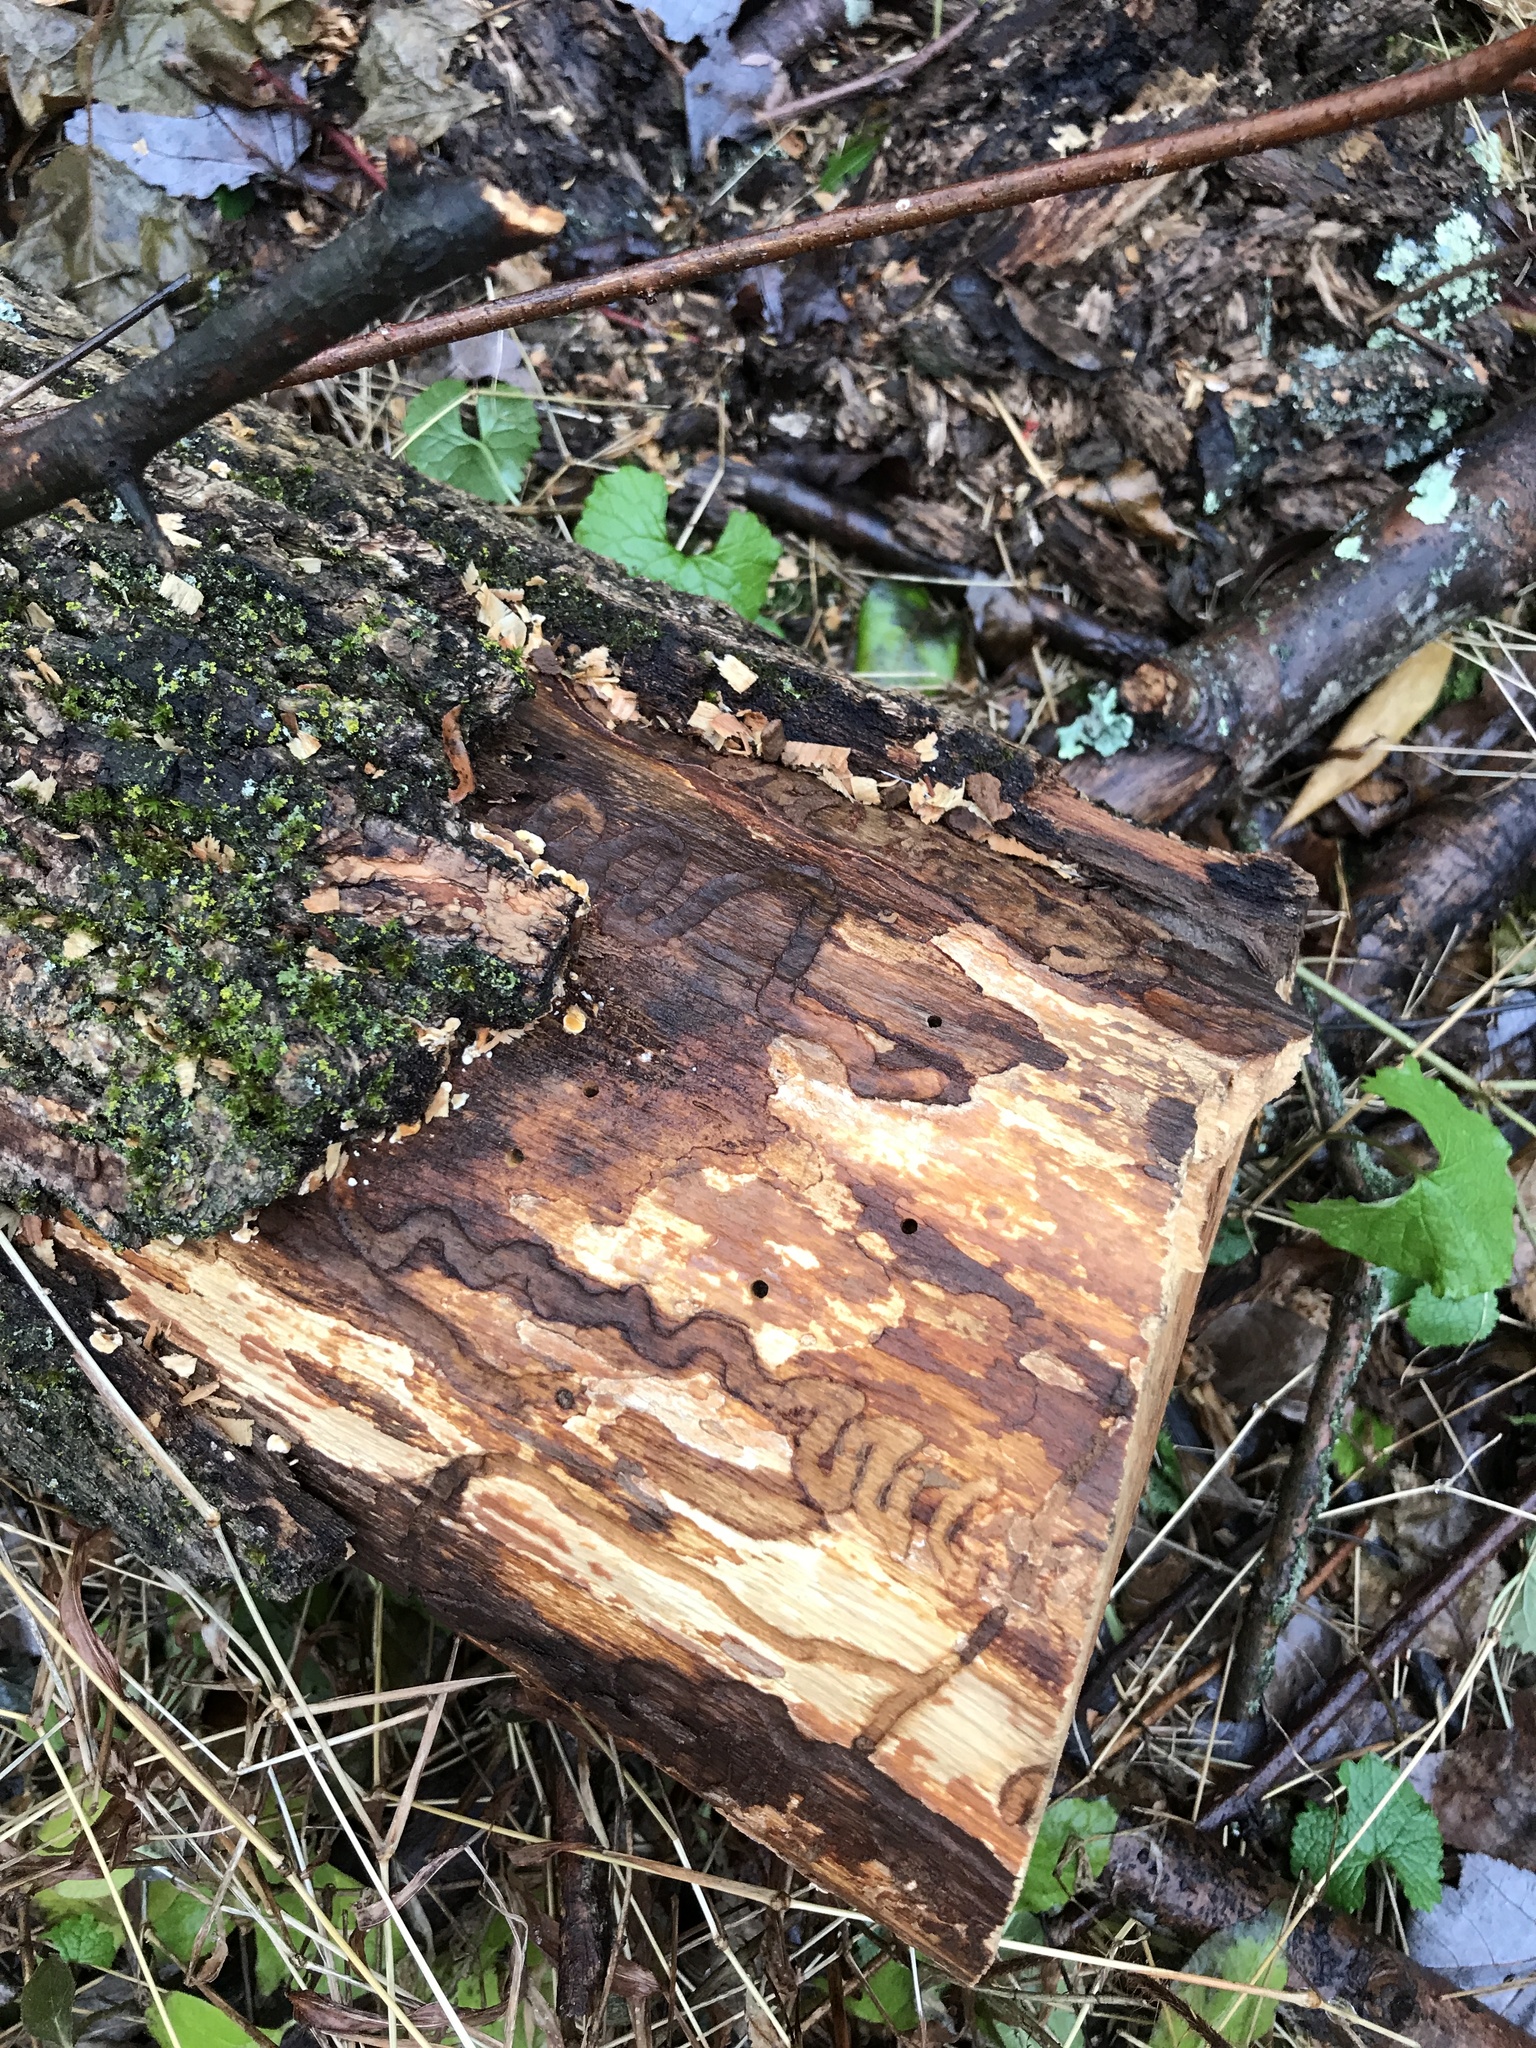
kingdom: Animalia
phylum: Arthropoda
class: Insecta
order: Coleoptera
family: Buprestidae
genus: Agrilus
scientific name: Agrilus planipennis
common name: Emerald ash borer
